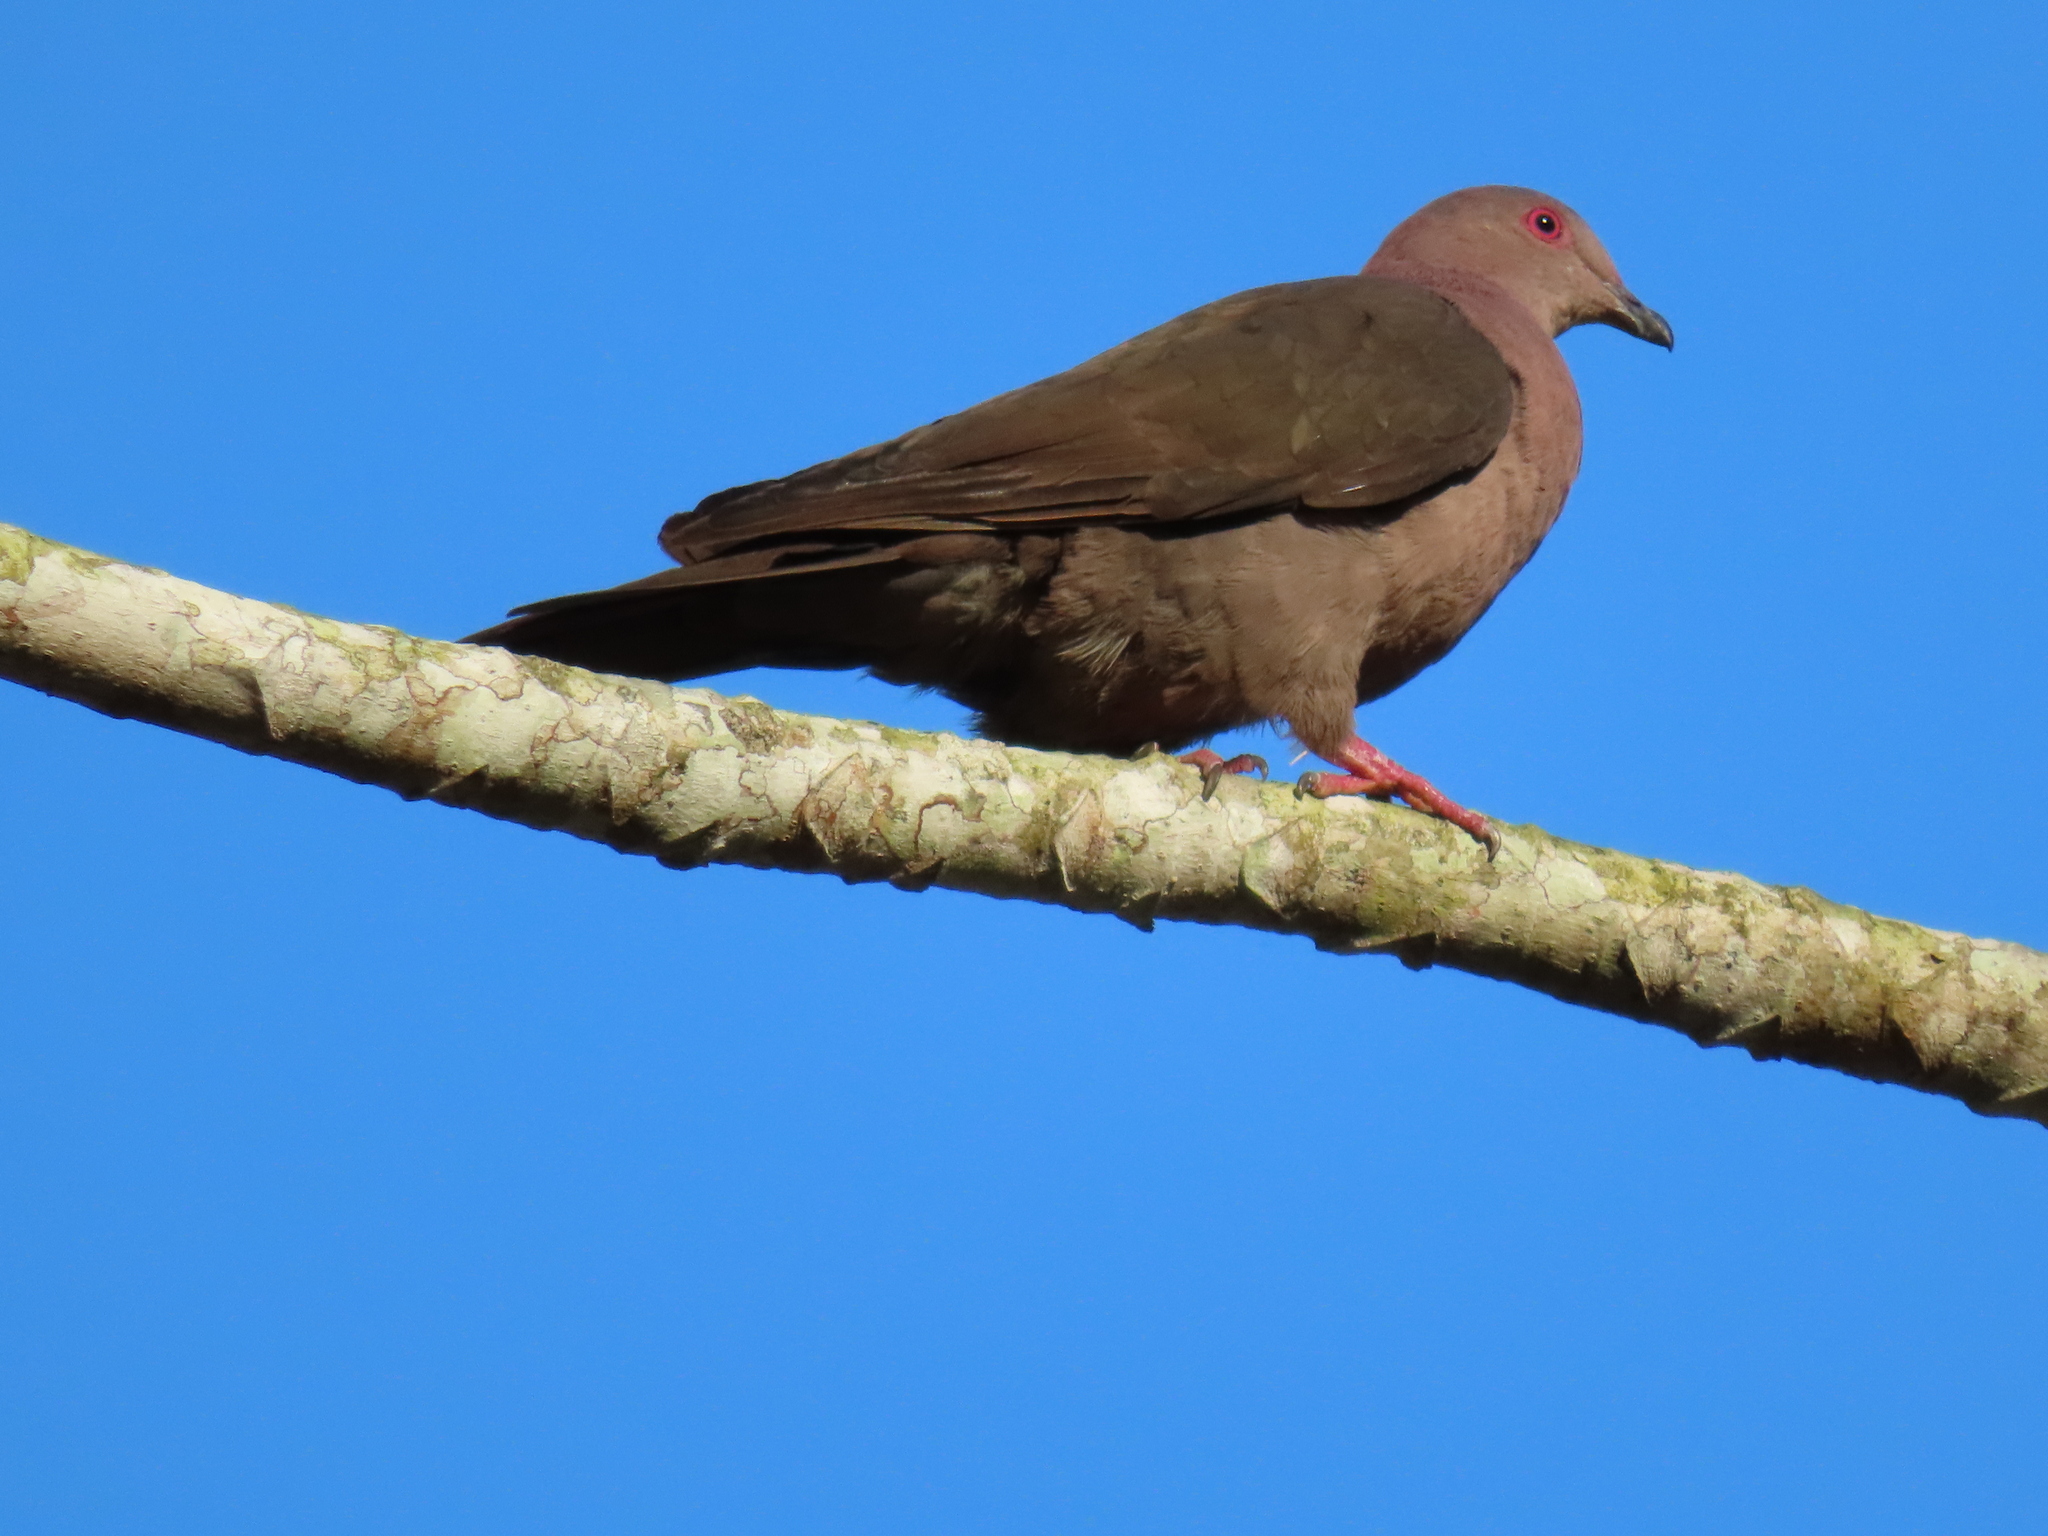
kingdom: Animalia
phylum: Chordata
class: Aves
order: Columbiformes
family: Columbidae
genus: Patagioenas
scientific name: Patagioenas nigrirostris
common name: Short-billed pigeon
